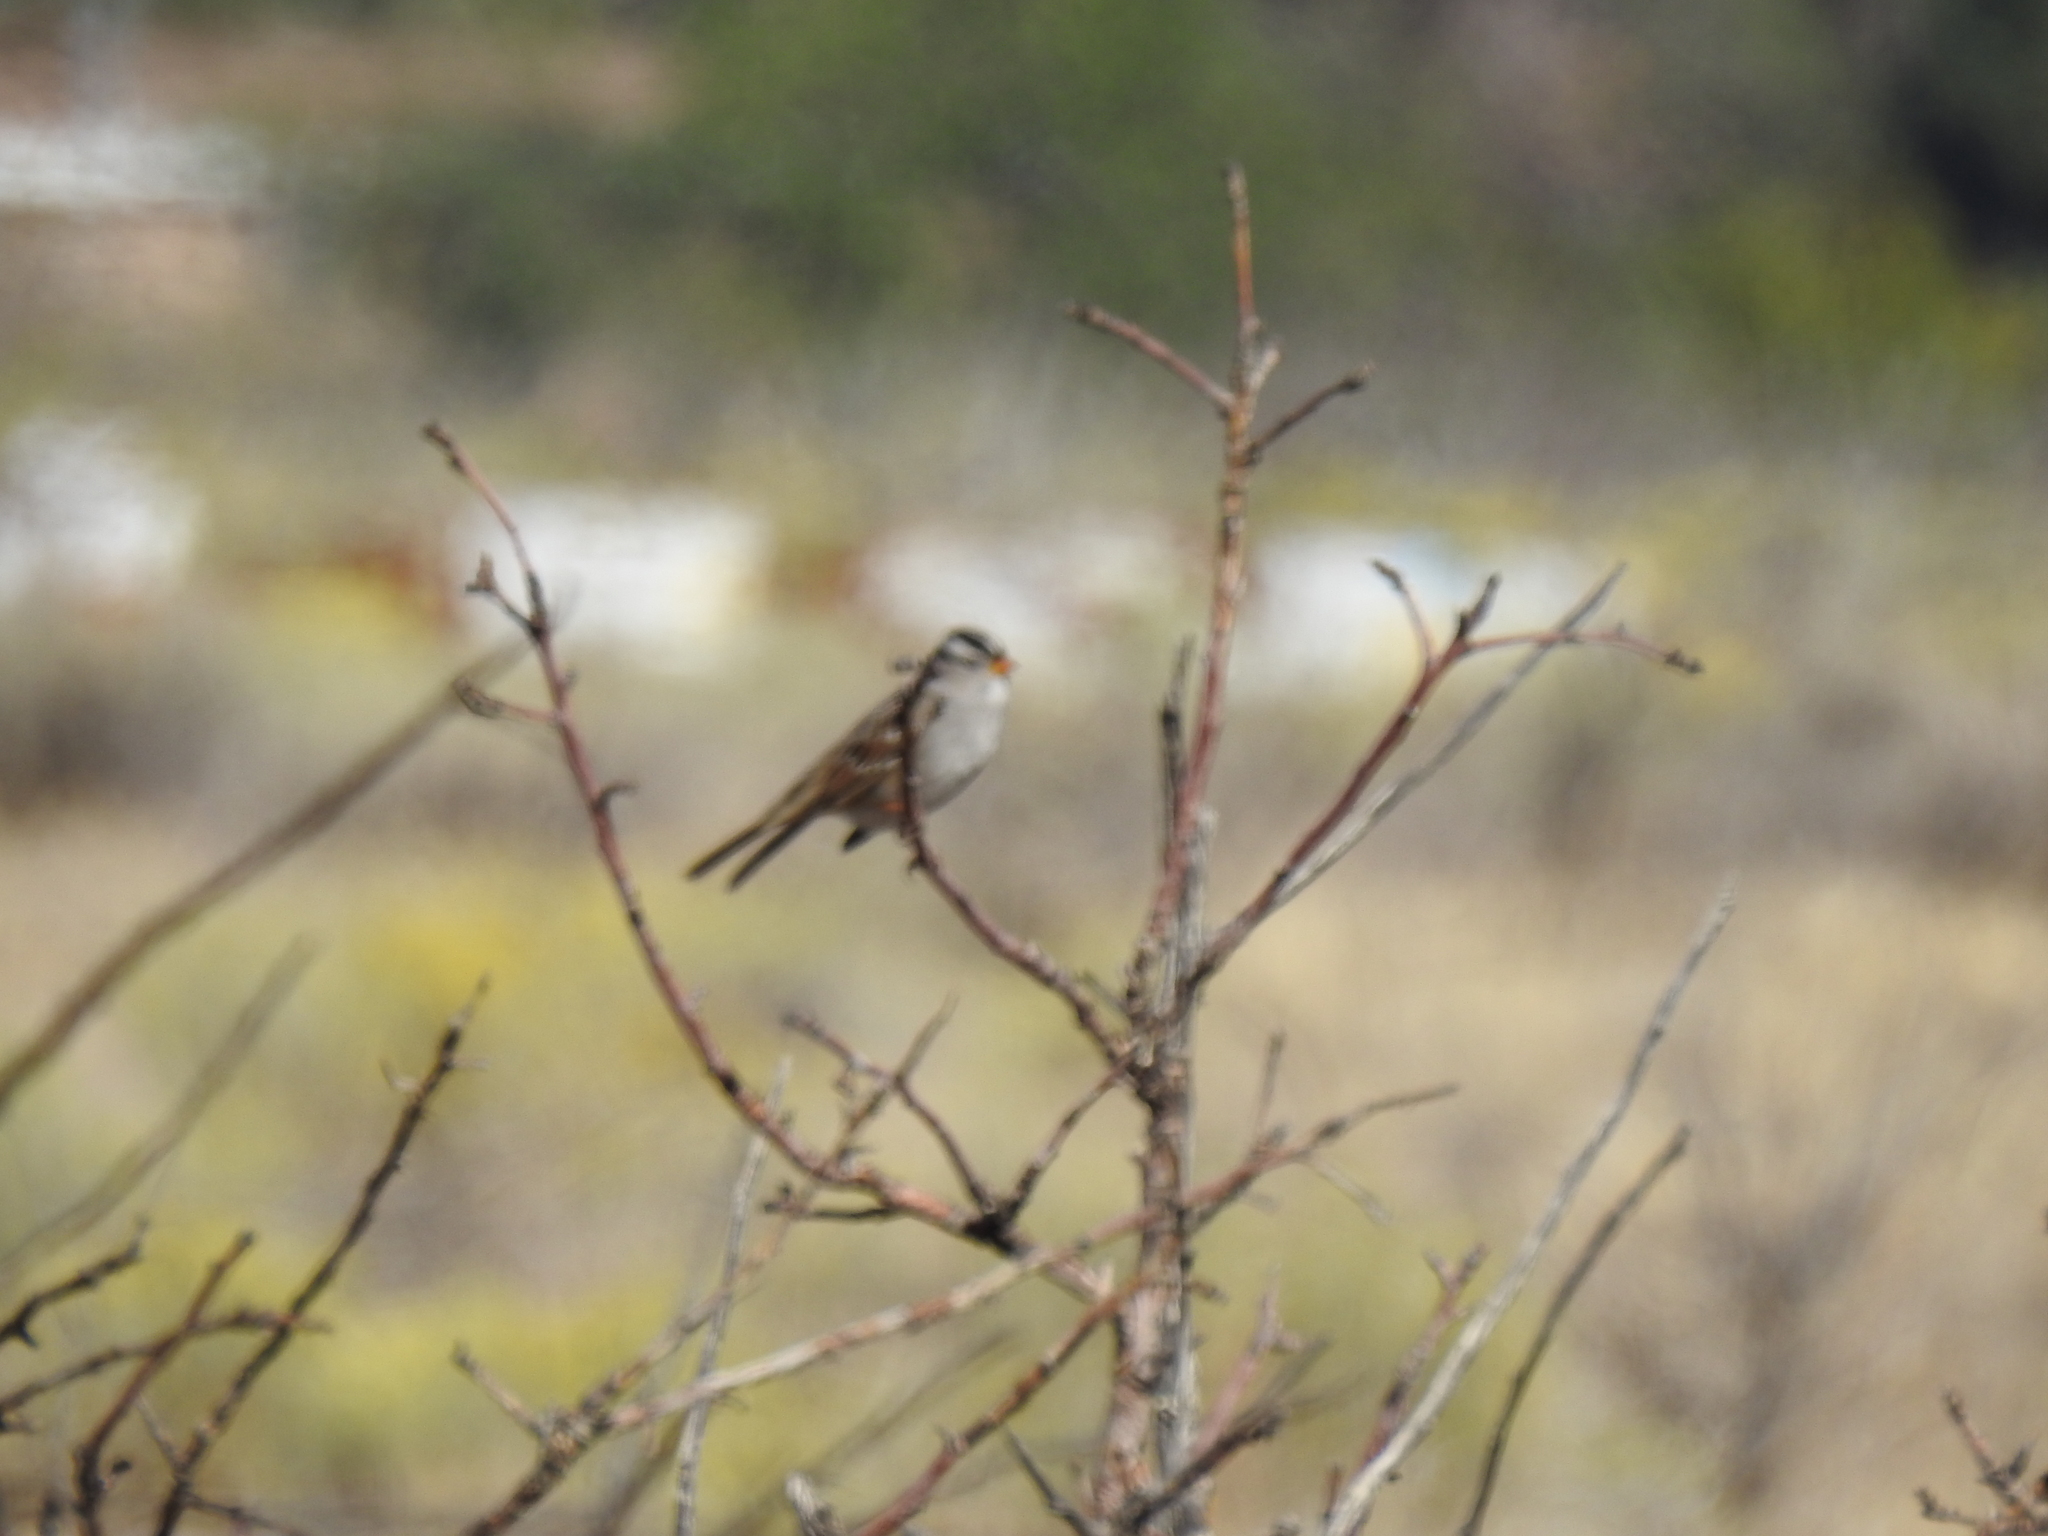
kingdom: Animalia
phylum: Chordata
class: Aves
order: Passeriformes
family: Passerellidae
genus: Zonotrichia
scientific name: Zonotrichia leucophrys
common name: White-crowned sparrow
